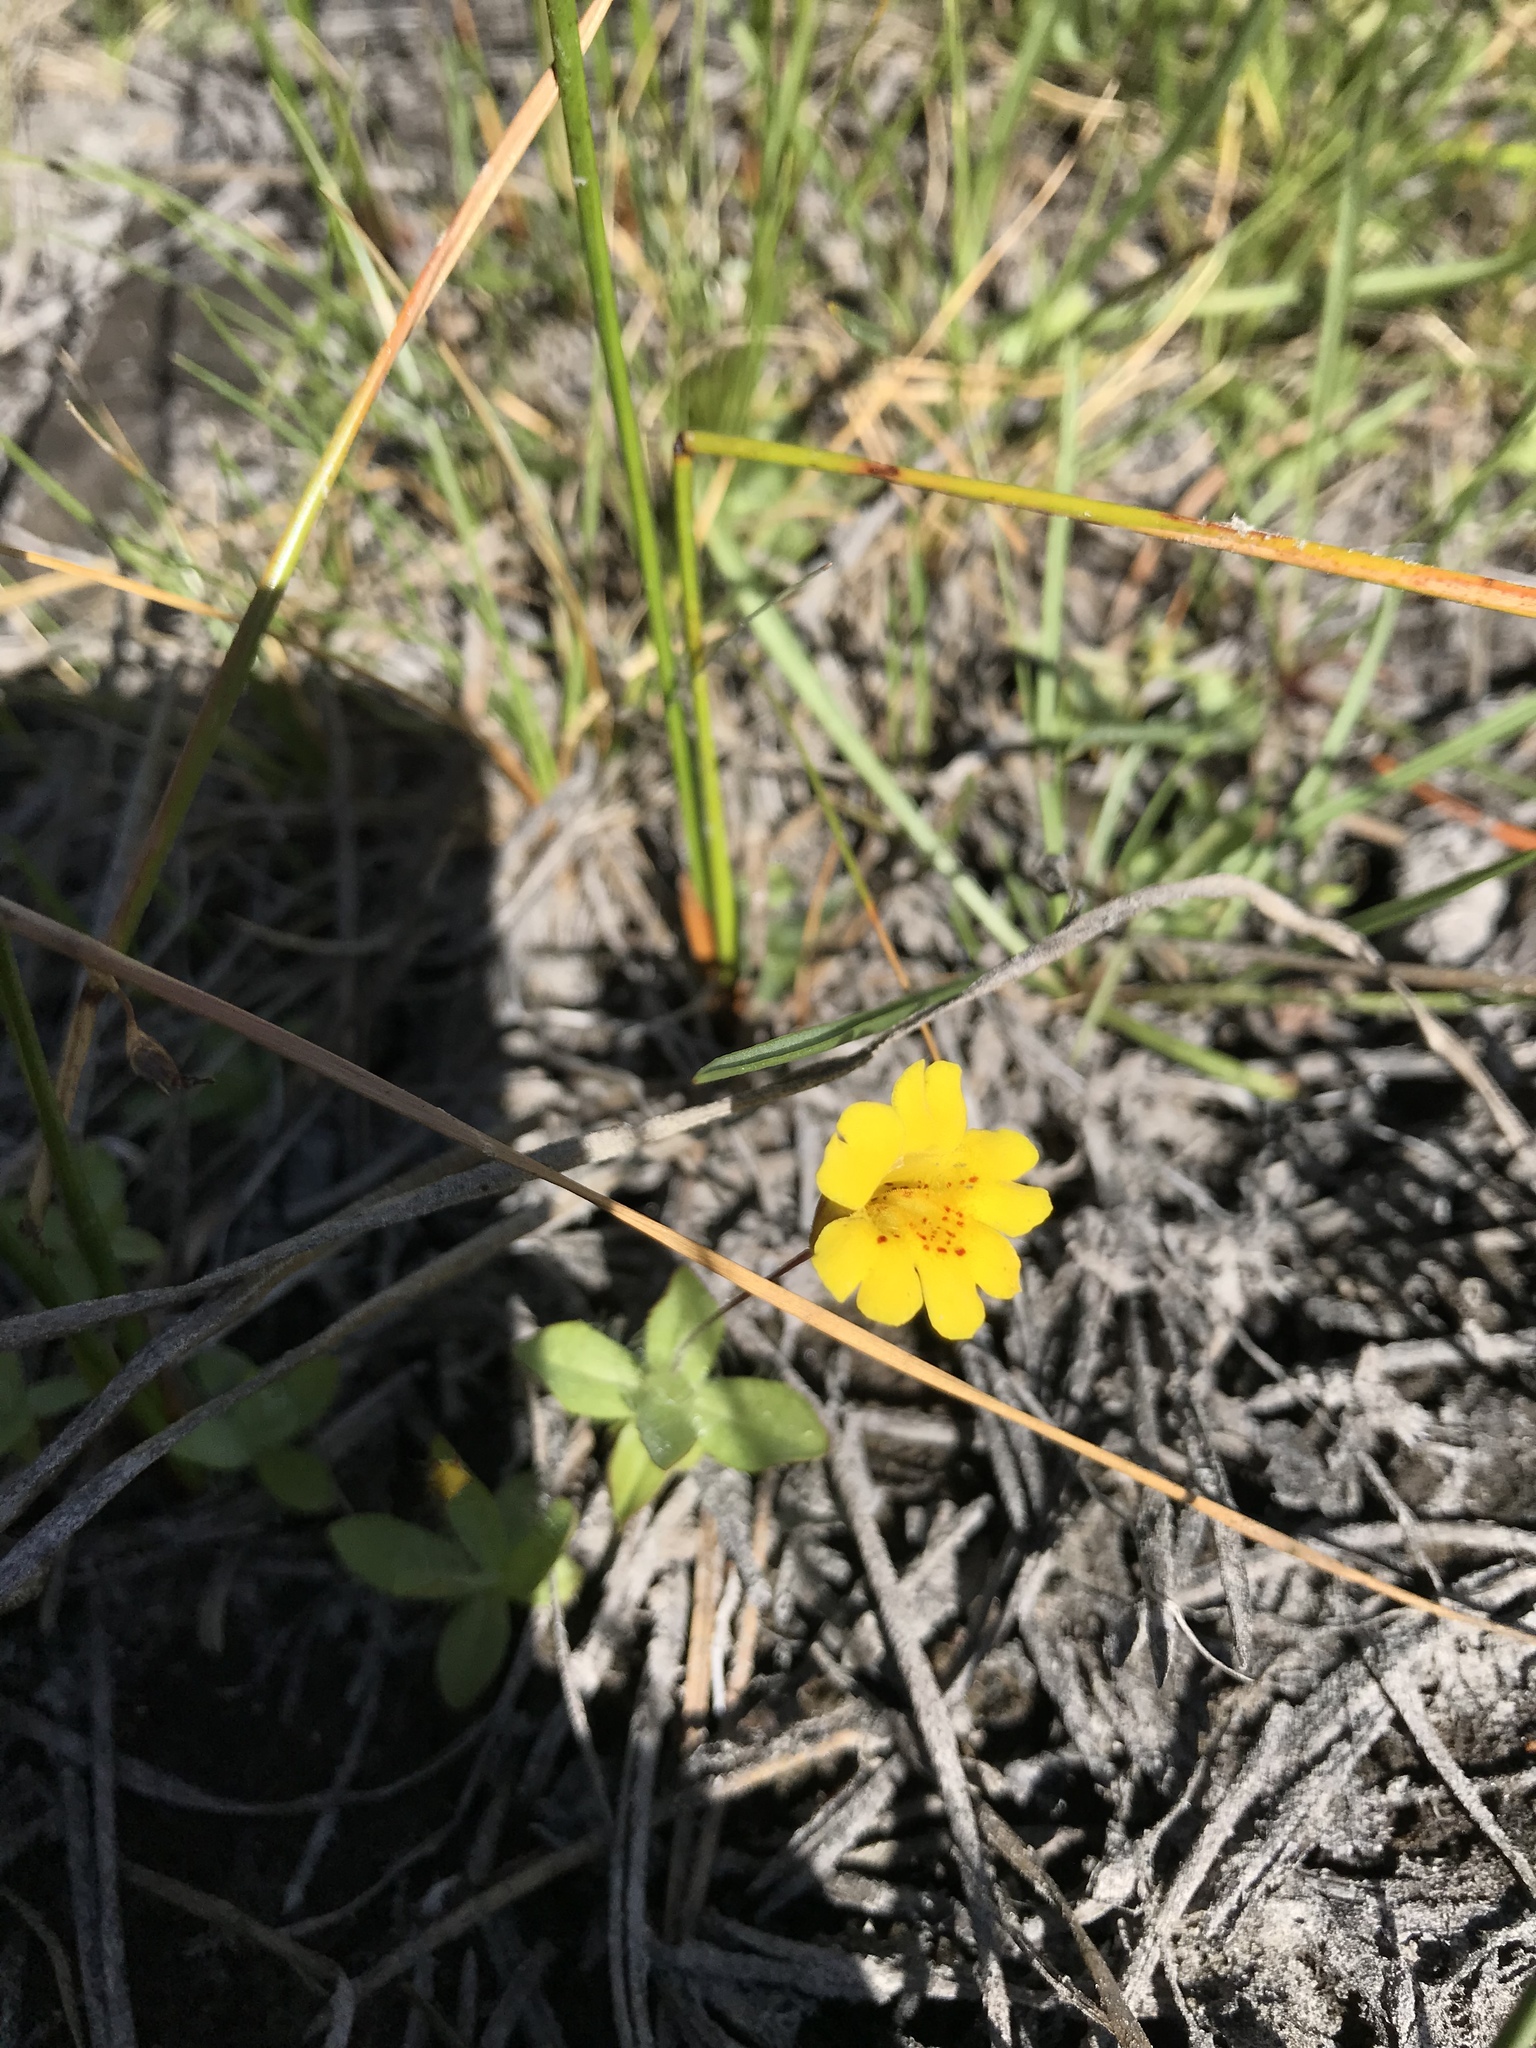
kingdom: Plantae
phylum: Tracheophyta
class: Magnoliopsida
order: Lamiales
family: Phrymaceae
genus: Erythranthe
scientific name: Erythranthe primuloides
